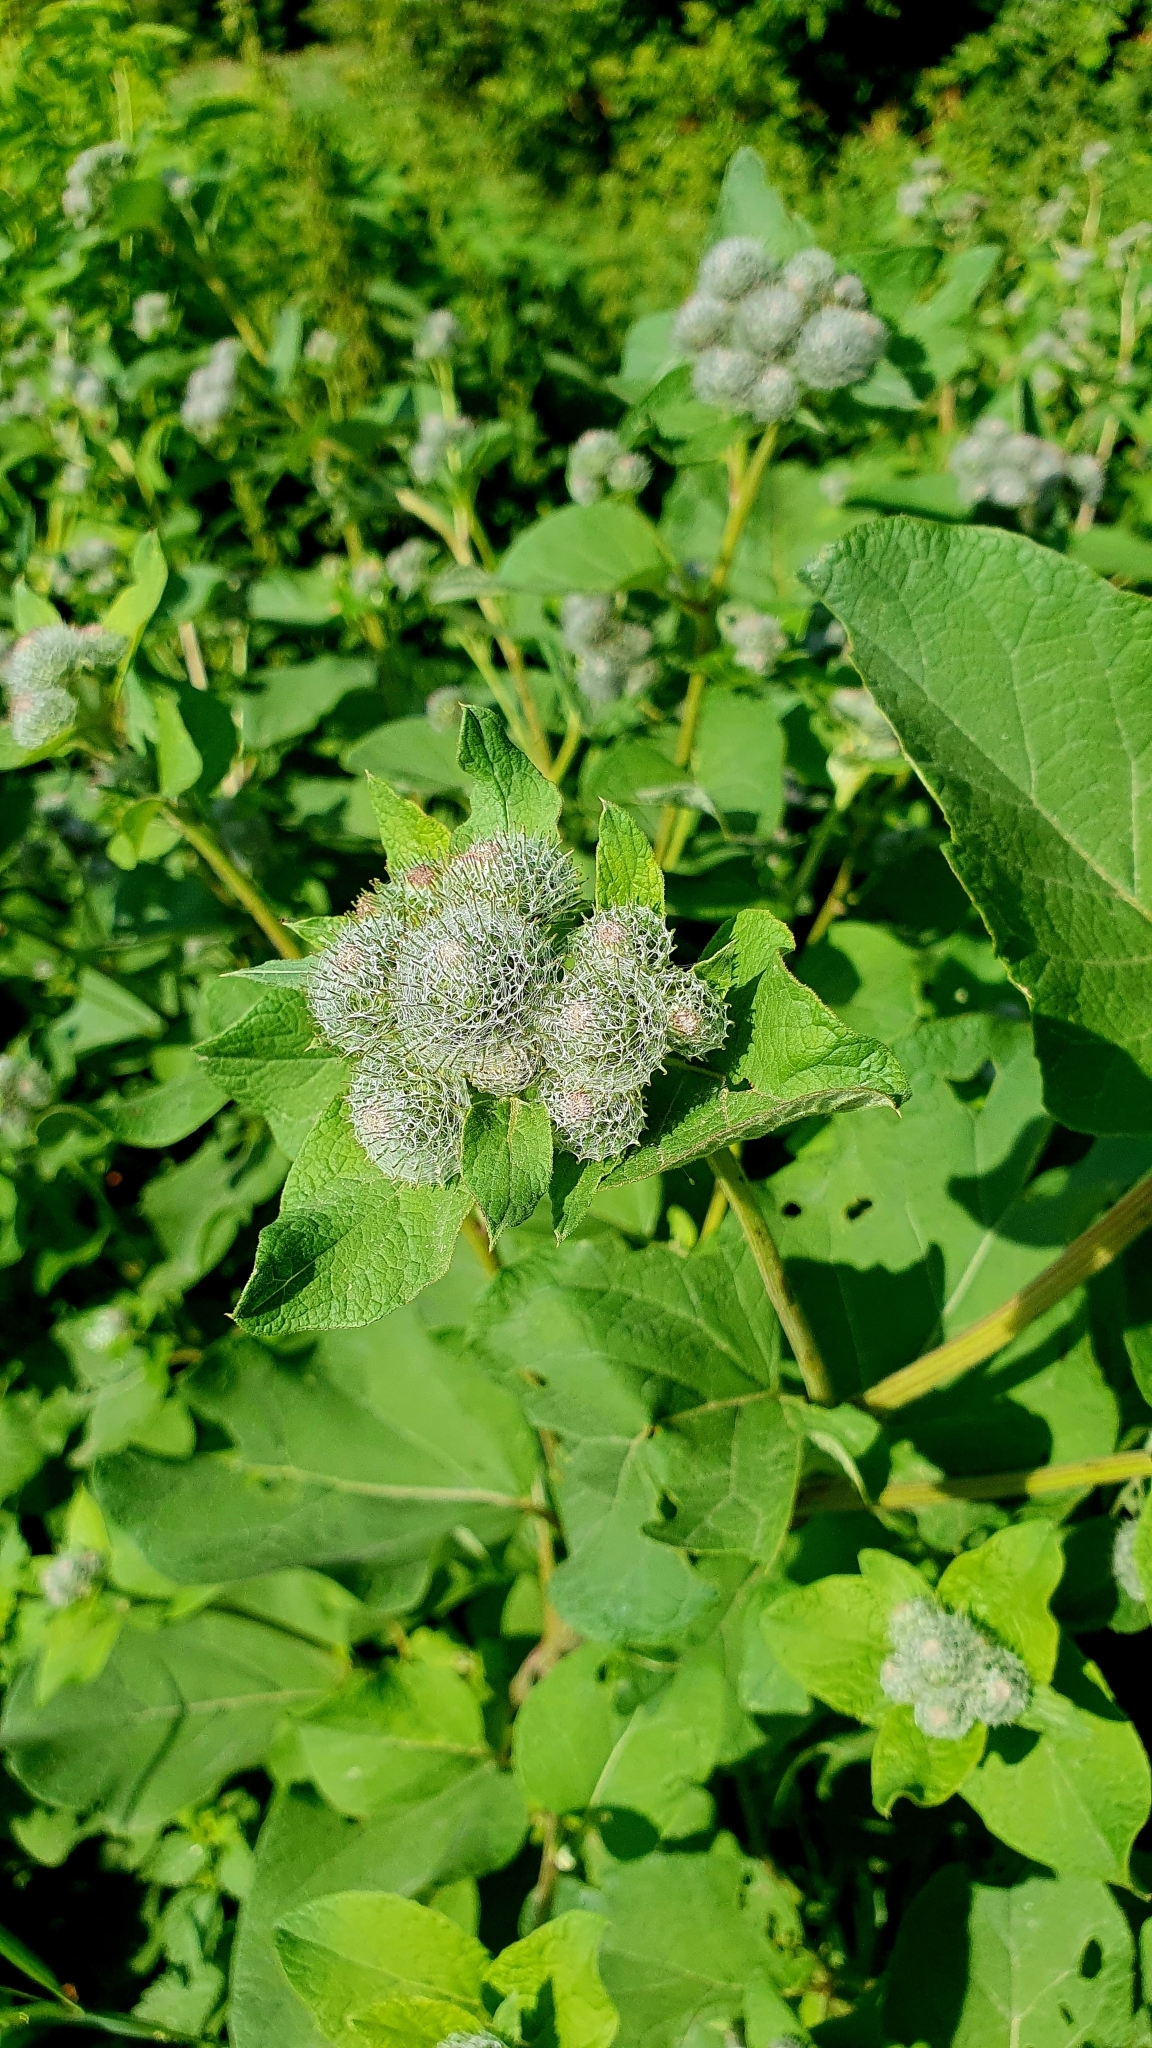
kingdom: Plantae
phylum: Tracheophyta
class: Magnoliopsida
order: Asterales
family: Asteraceae
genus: Arctium
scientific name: Arctium tomentosum
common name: Woolly burdock
